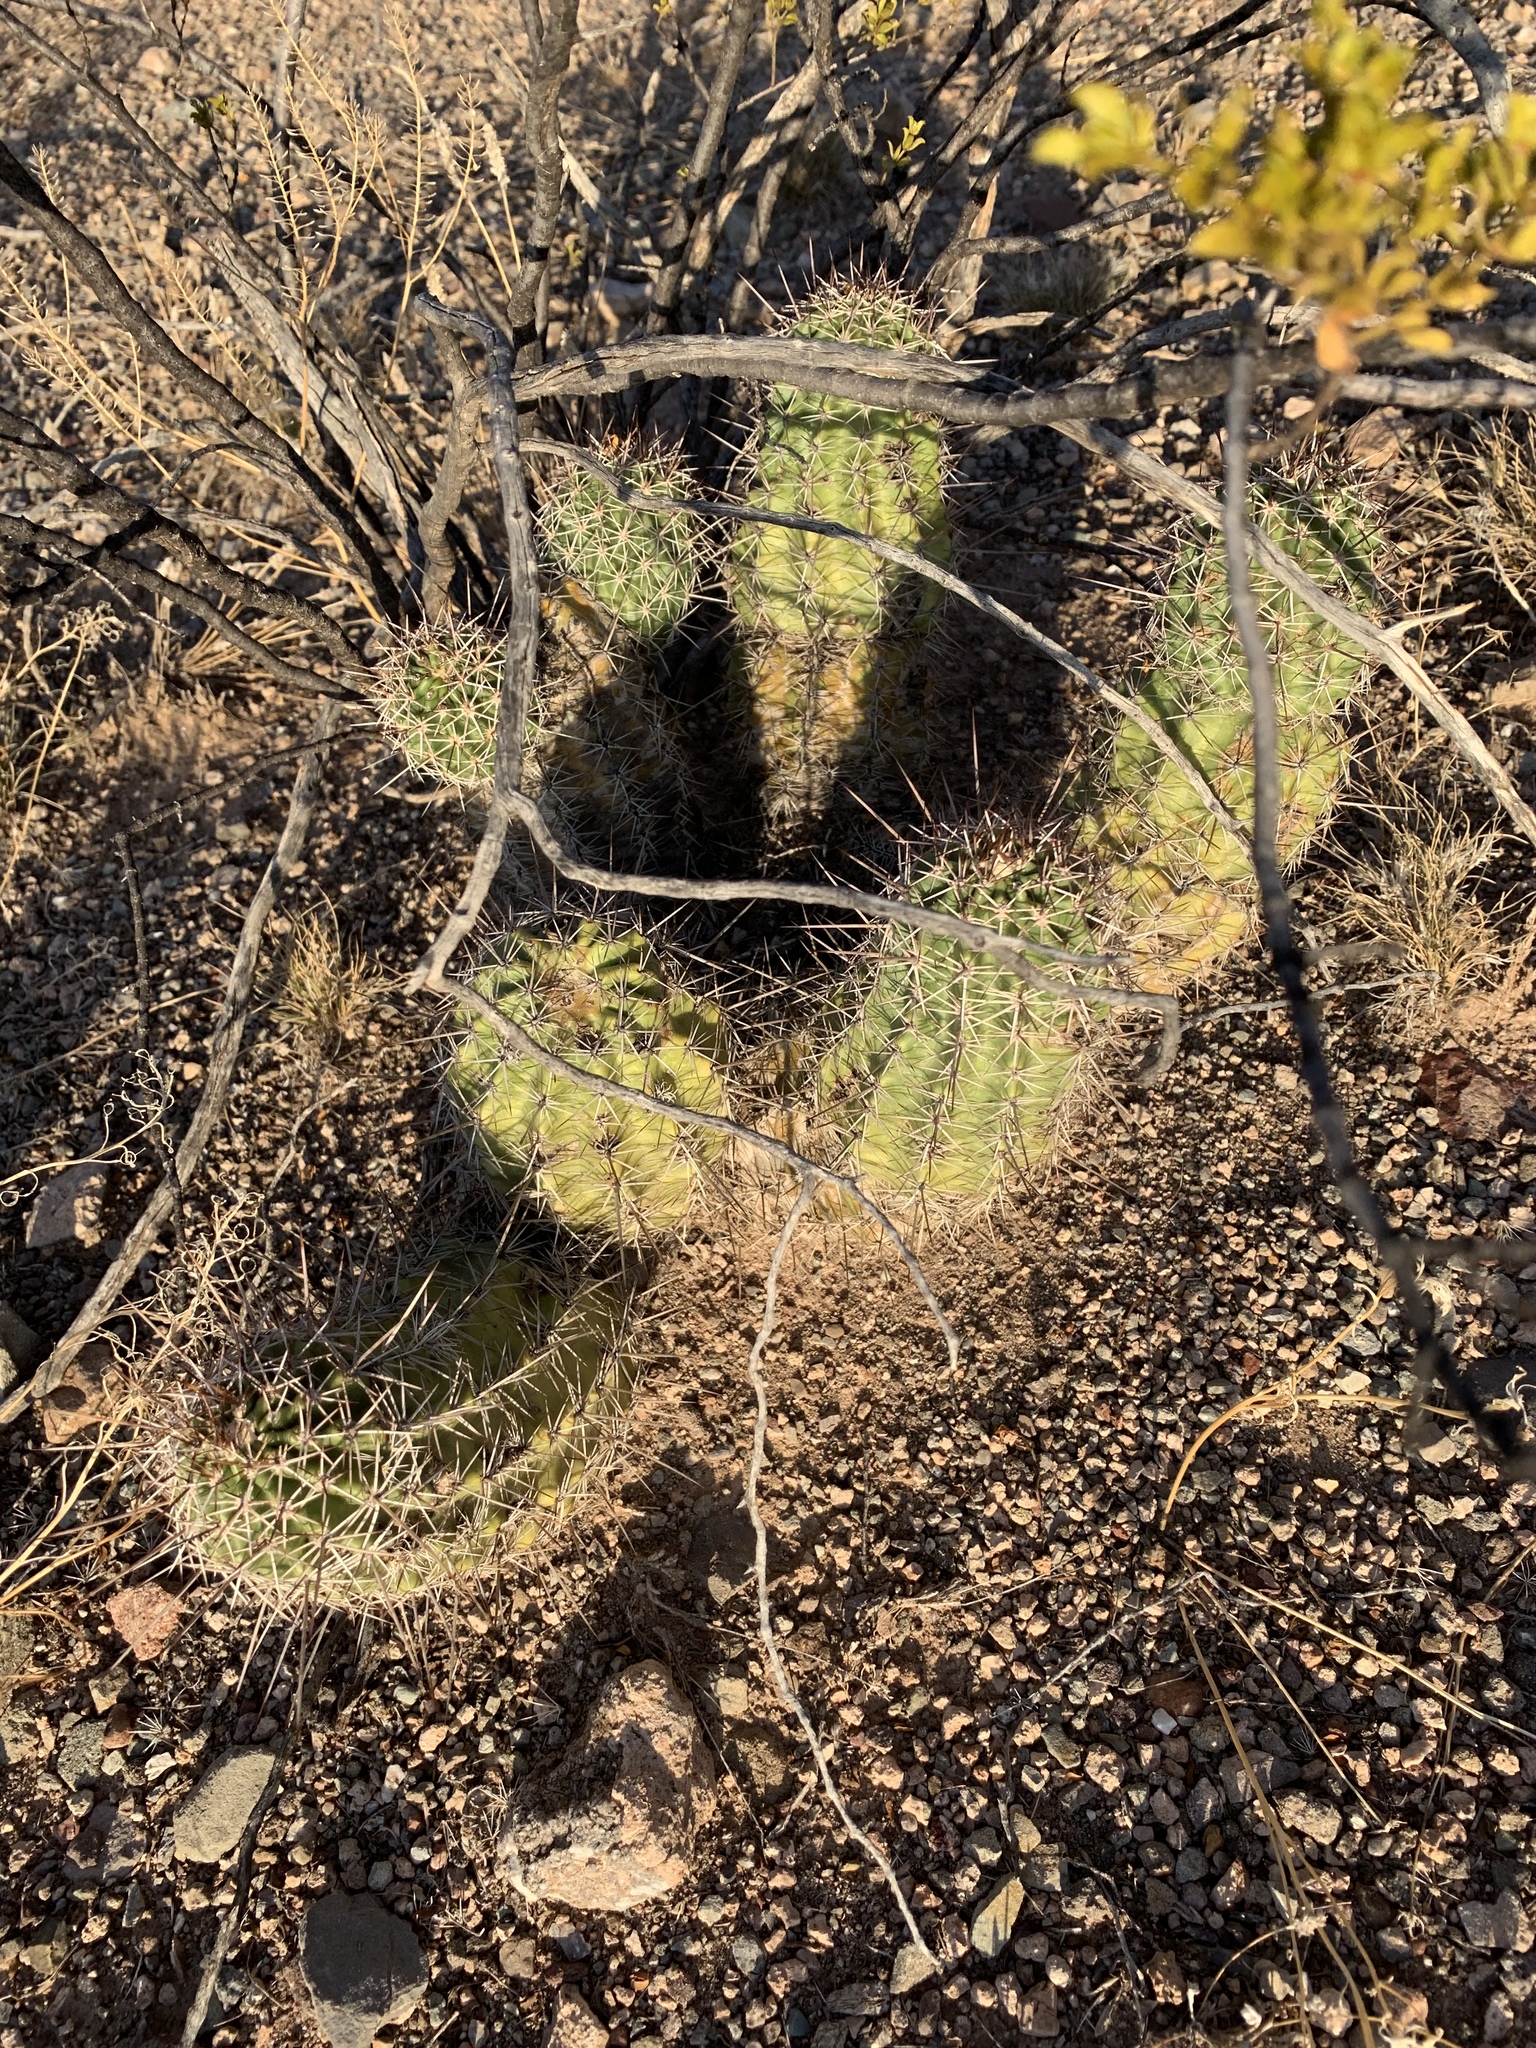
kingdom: Plantae
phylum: Tracheophyta
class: Magnoliopsida
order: Caryophyllales
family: Cactaceae
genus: Echinocereus
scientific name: Echinocereus fasciculatus
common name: Bundle hedgehog
